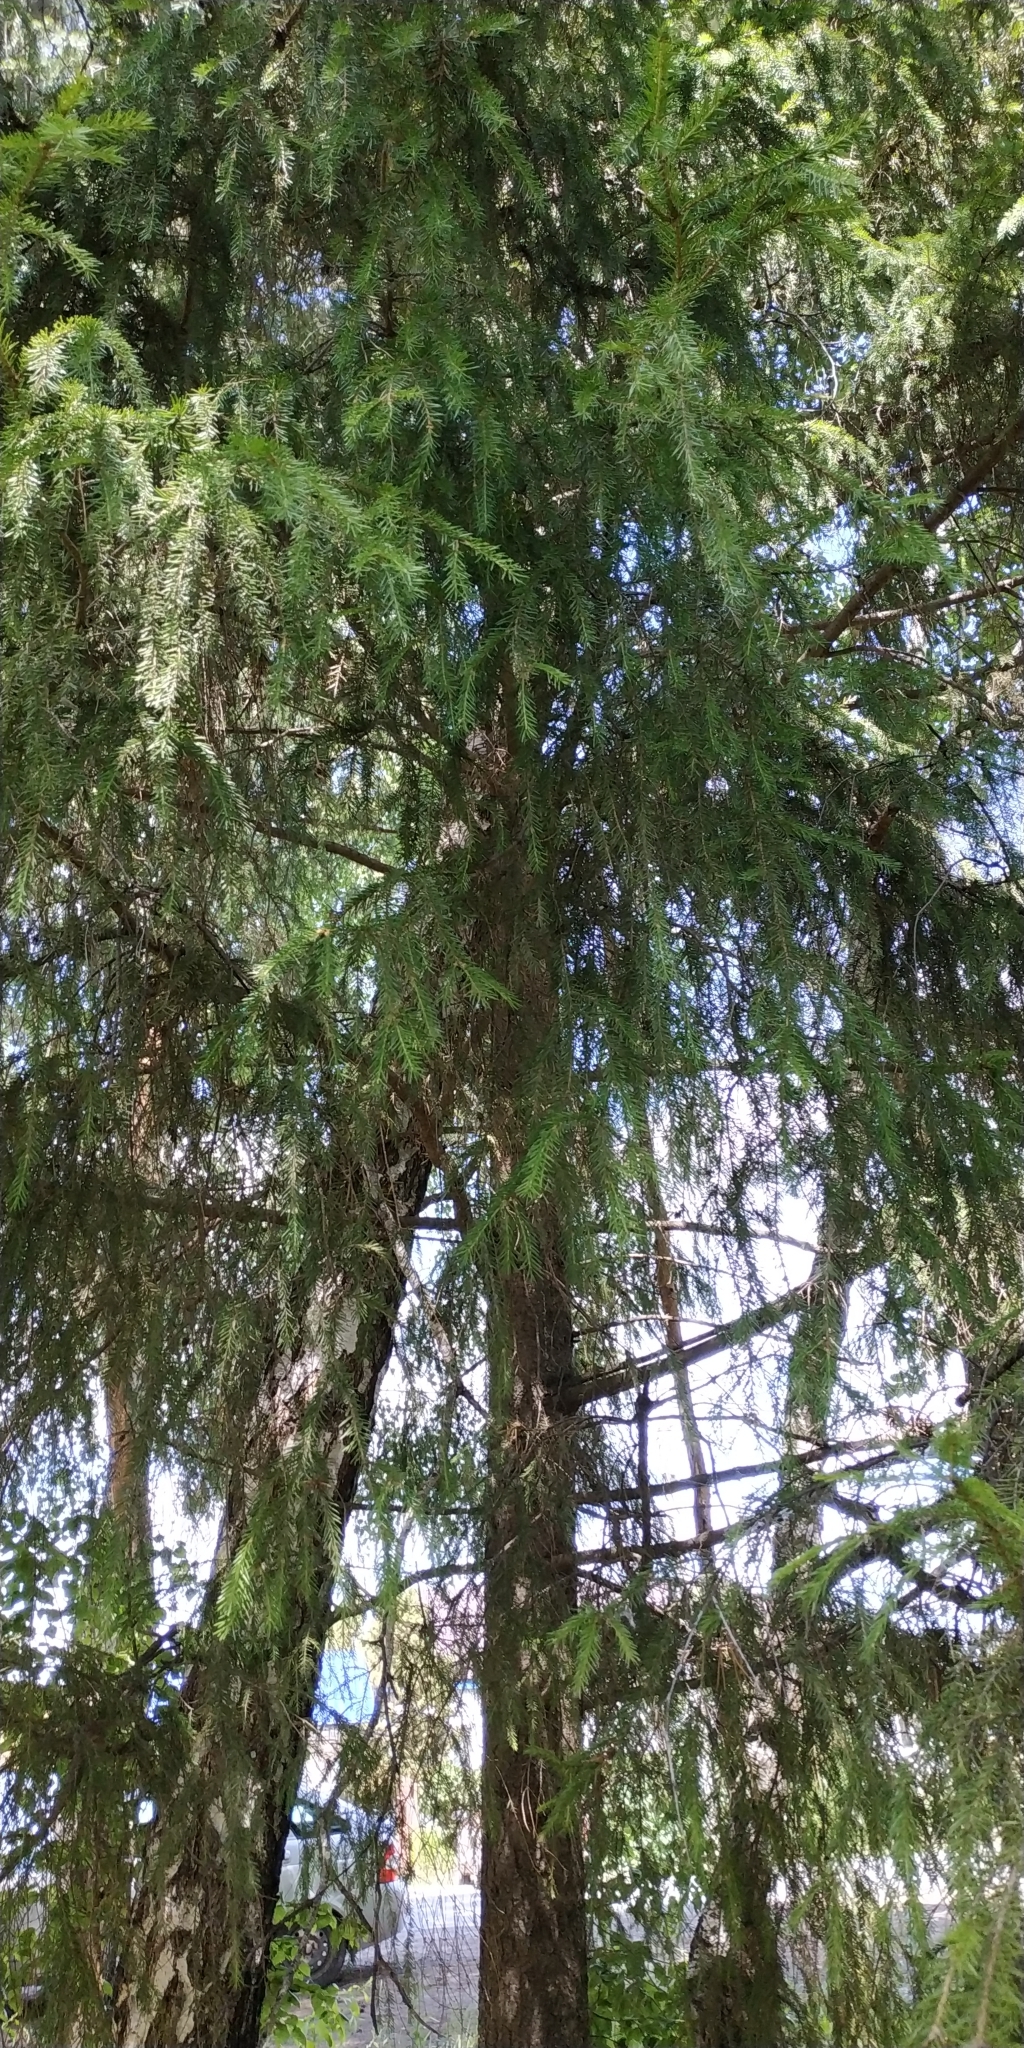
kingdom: Plantae
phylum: Tracheophyta
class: Pinopsida
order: Pinales
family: Pinaceae
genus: Picea
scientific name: Picea obovata
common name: Siberian spruce
